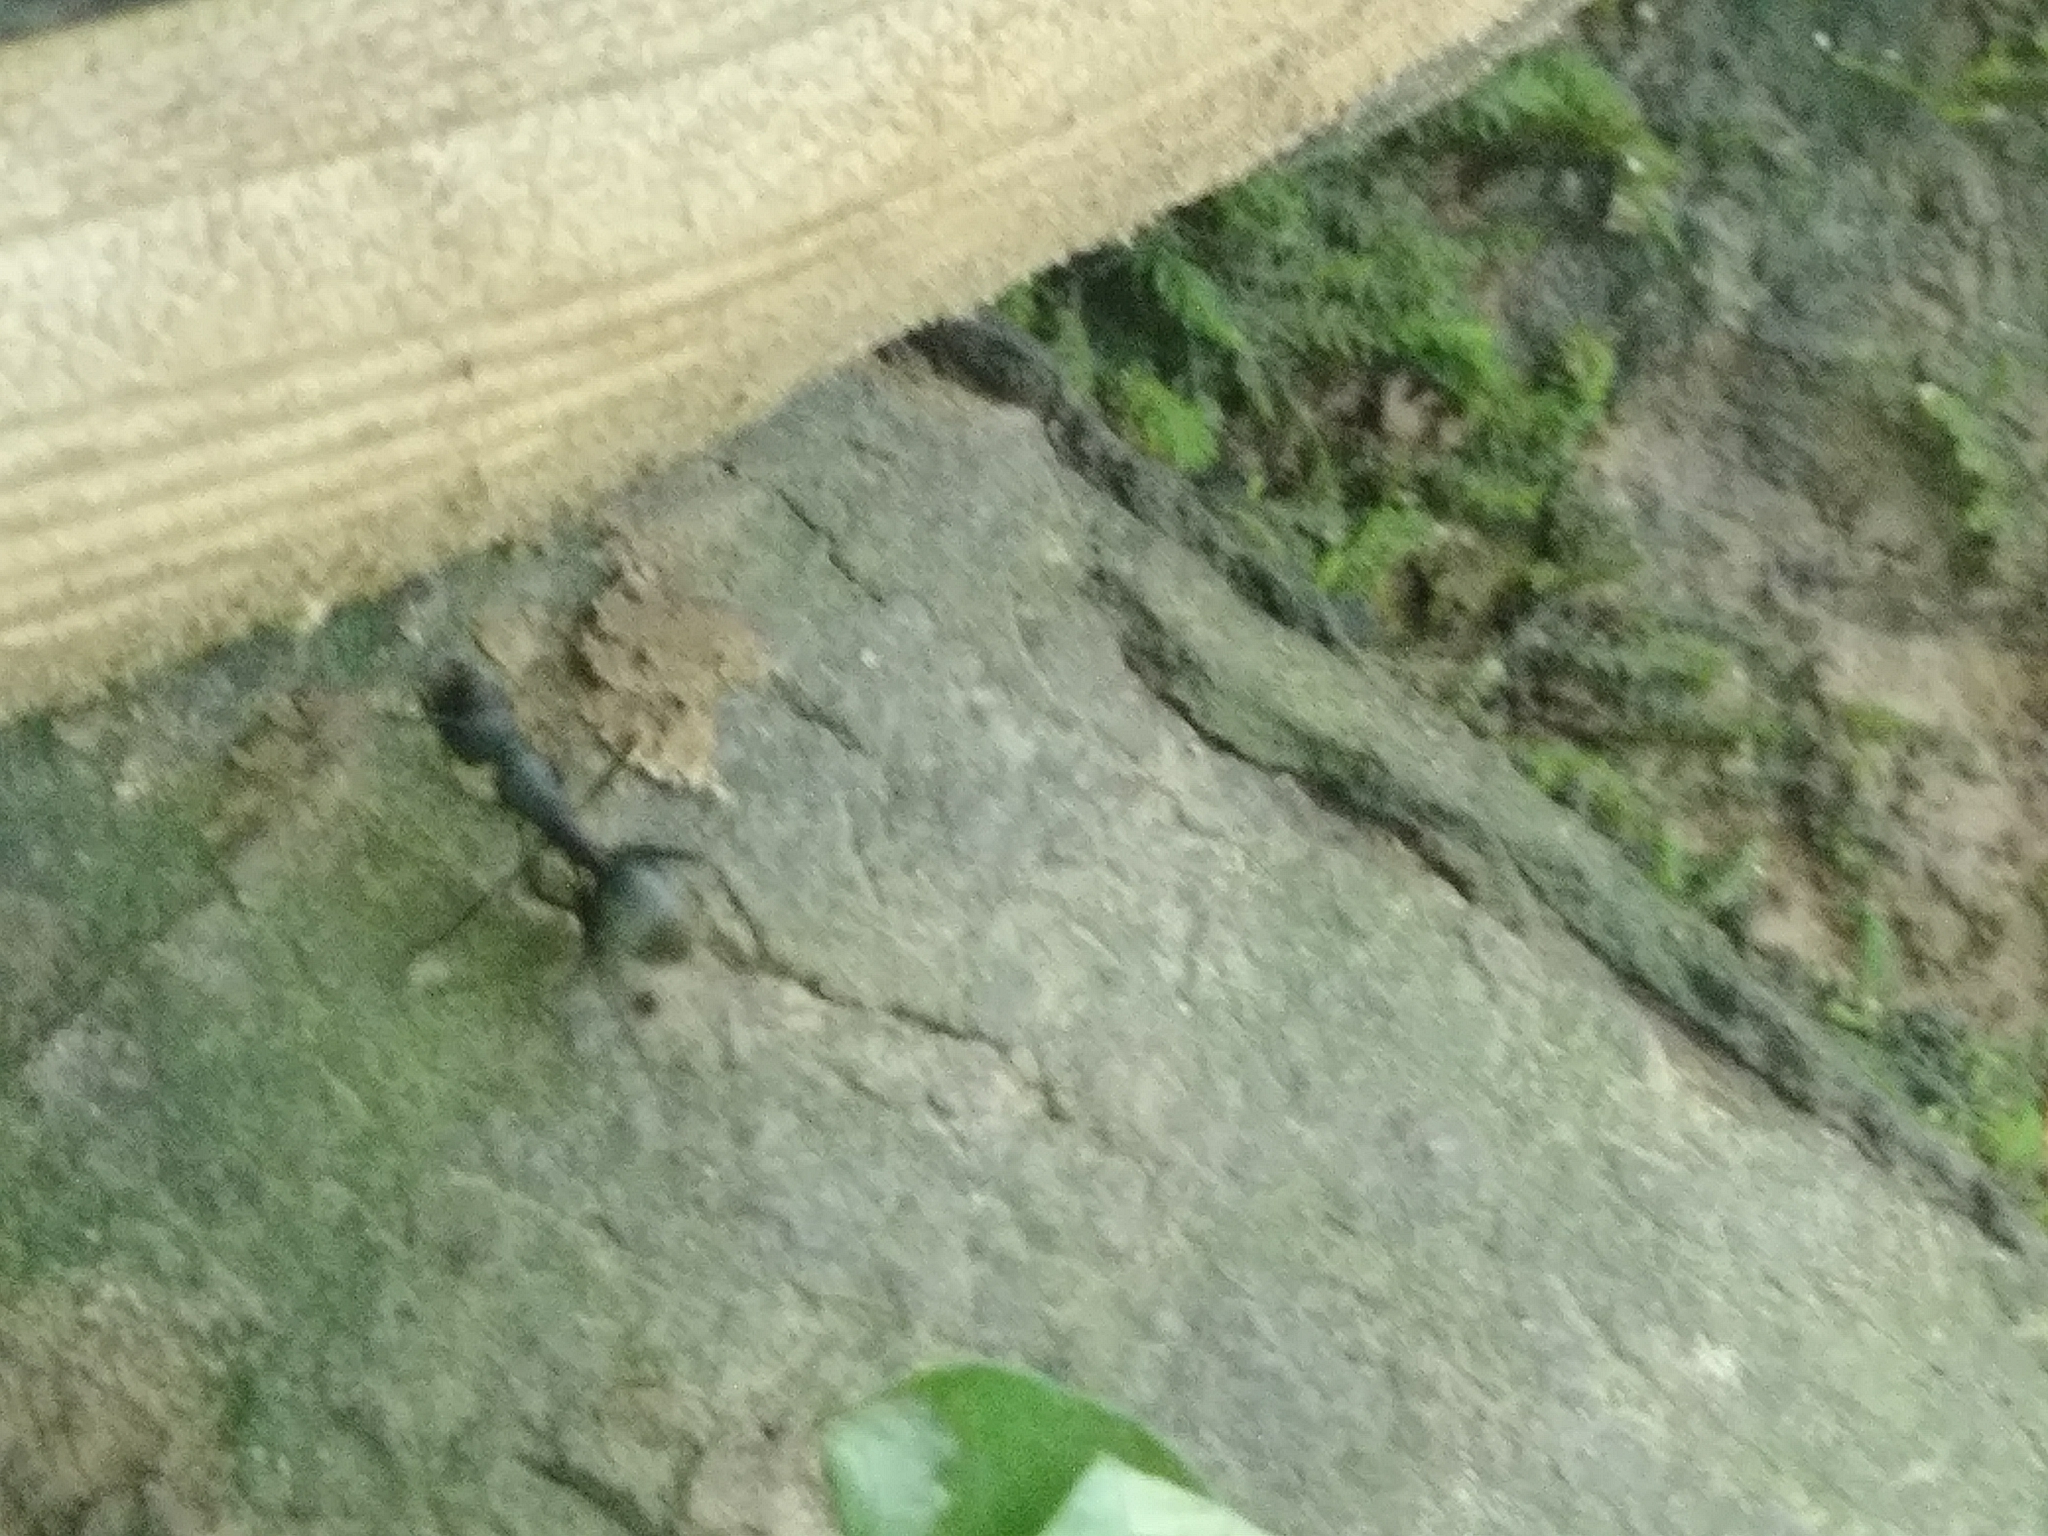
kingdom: Animalia
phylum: Arthropoda
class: Insecta
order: Hymenoptera
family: Formicidae
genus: Camponotus
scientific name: Camponotus pennsylvanicus
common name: Black carpenter ant
